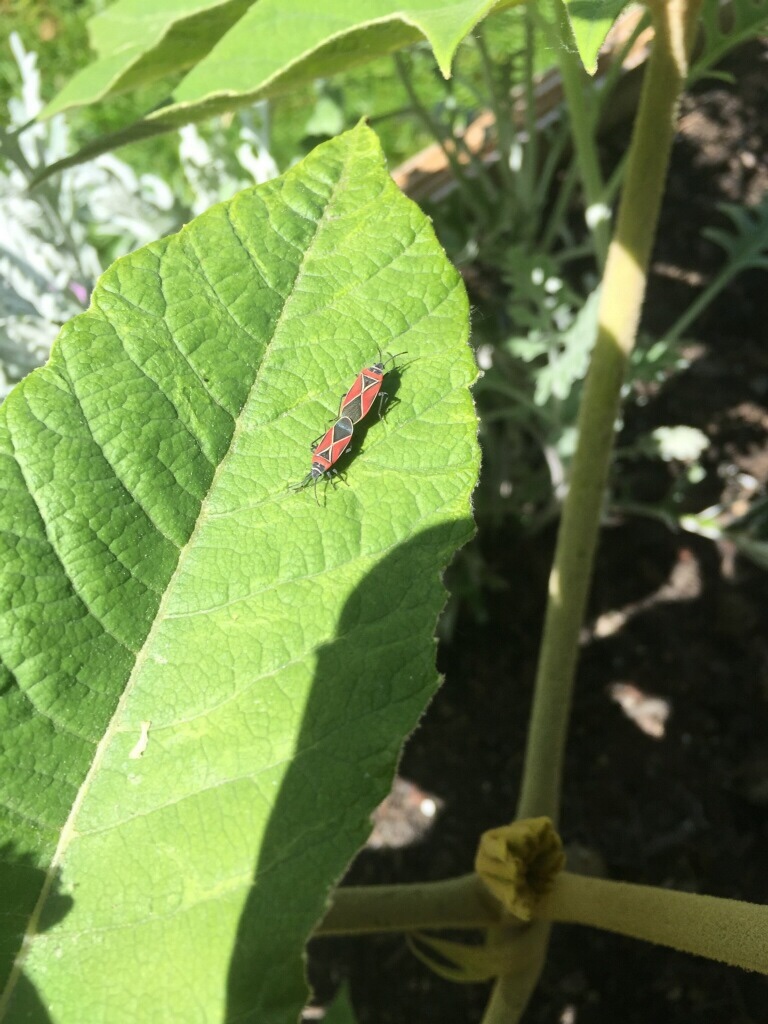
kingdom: Animalia
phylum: Arthropoda
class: Insecta
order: Hemiptera
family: Lygaeidae
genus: Neacoryphus
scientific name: Neacoryphus bicrucis
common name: Lygaeid bug
